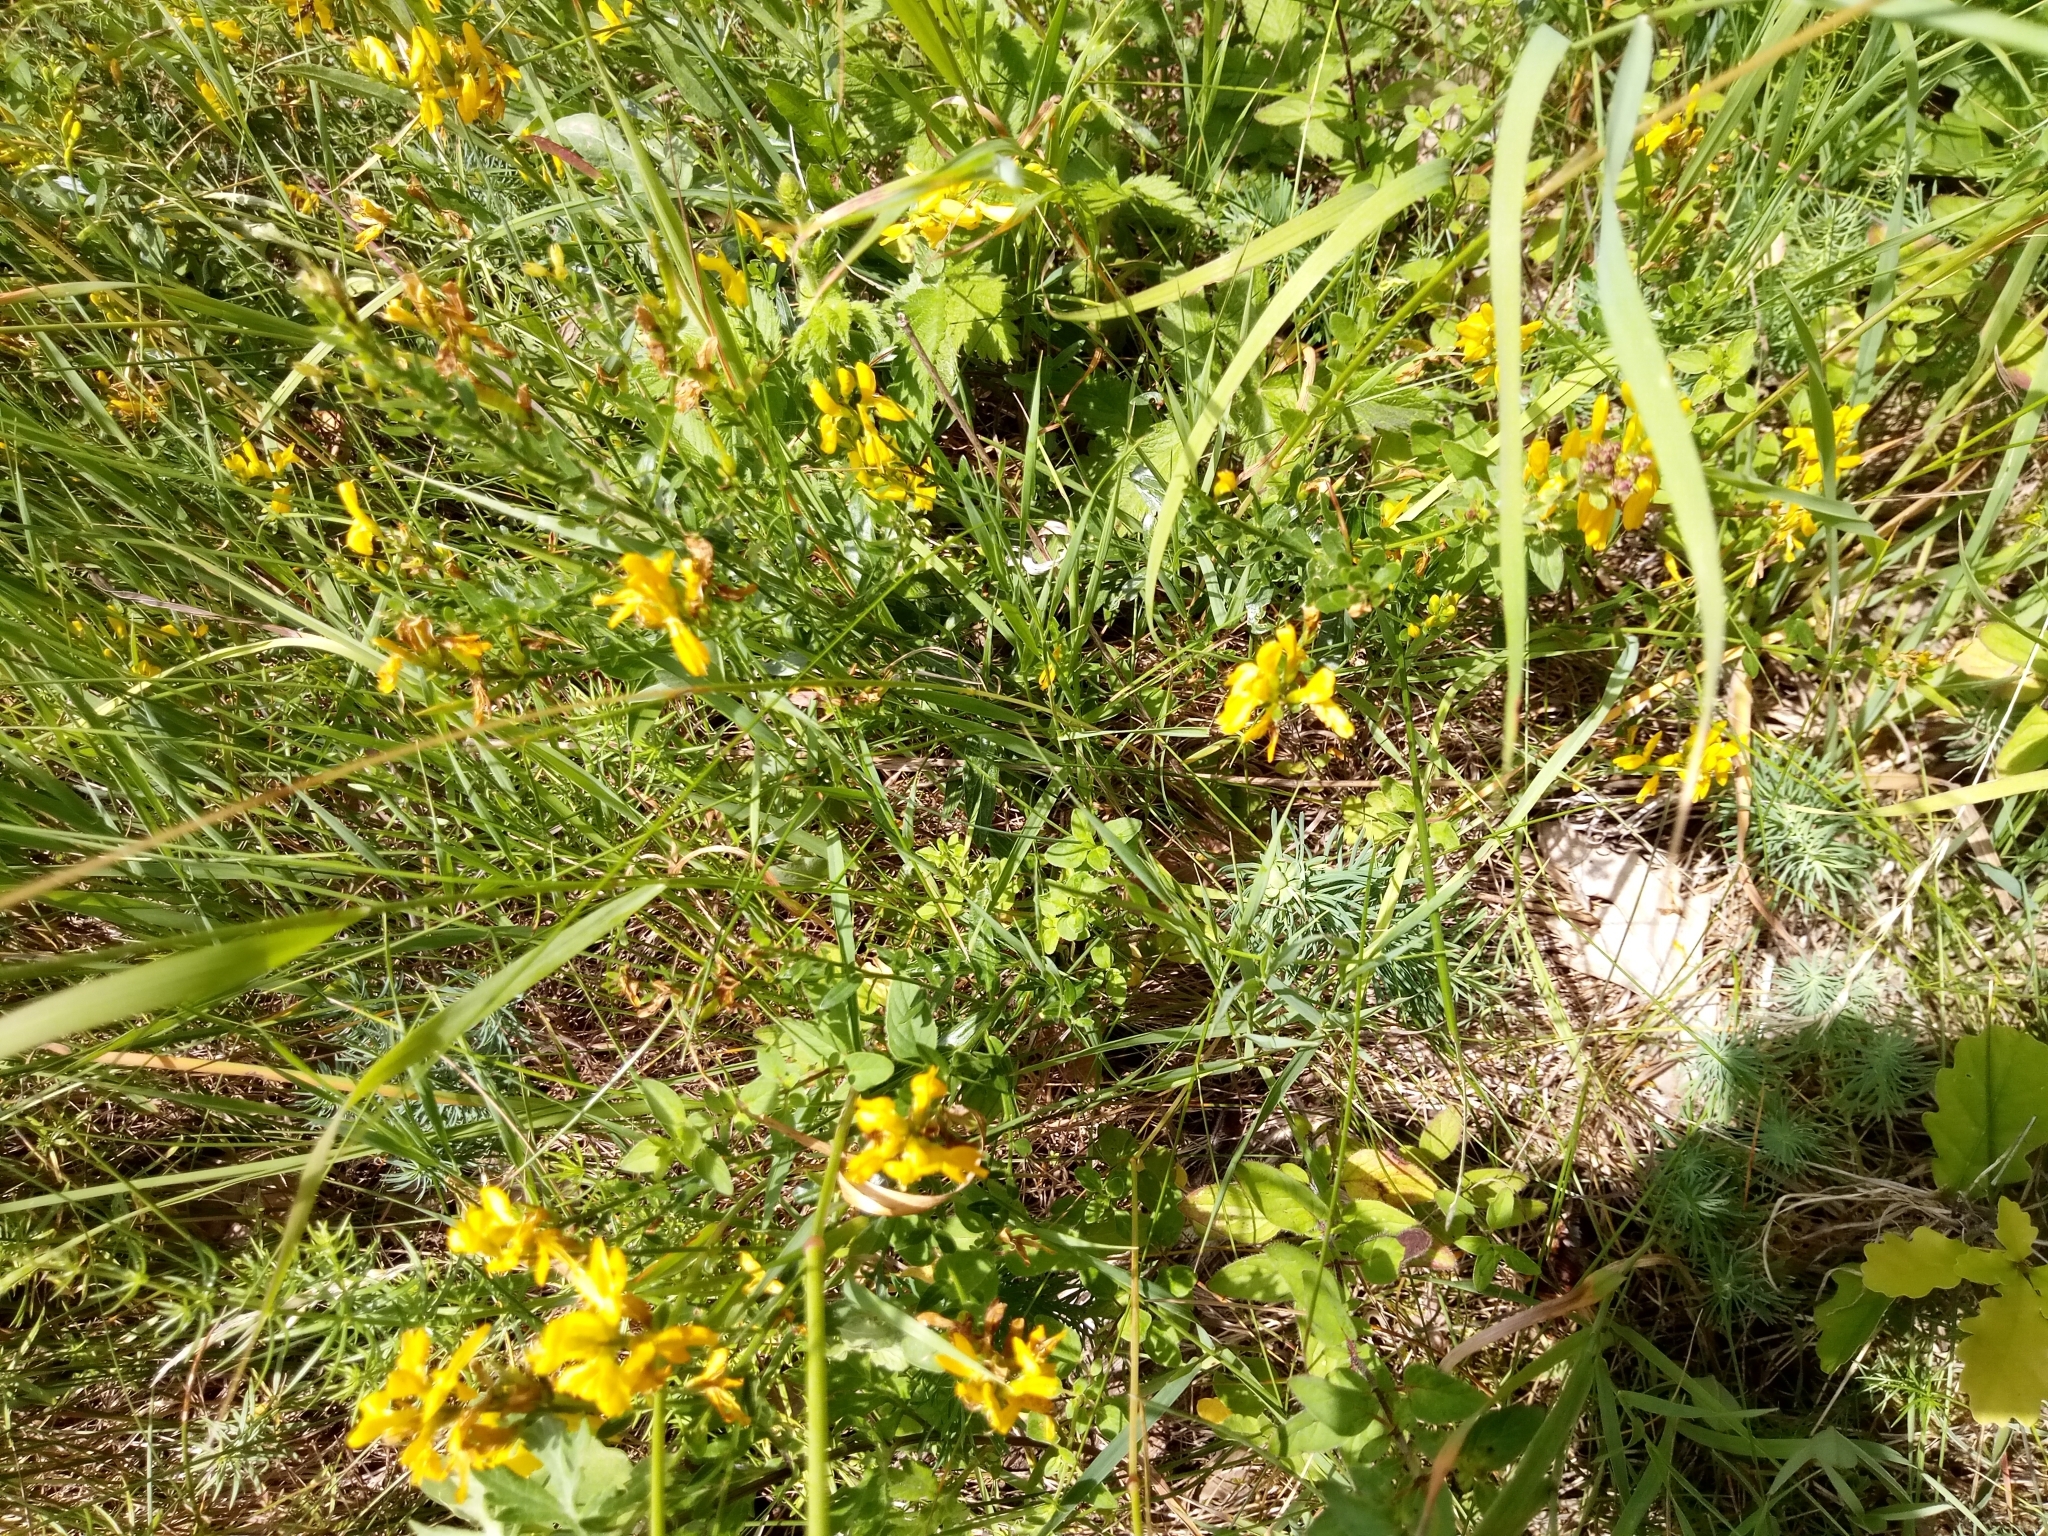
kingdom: Plantae
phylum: Tracheophyta
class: Magnoliopsida
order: Fabales
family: Fabaceae
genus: Genista
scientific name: Genista tinctoria
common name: Dyer's greenweed
